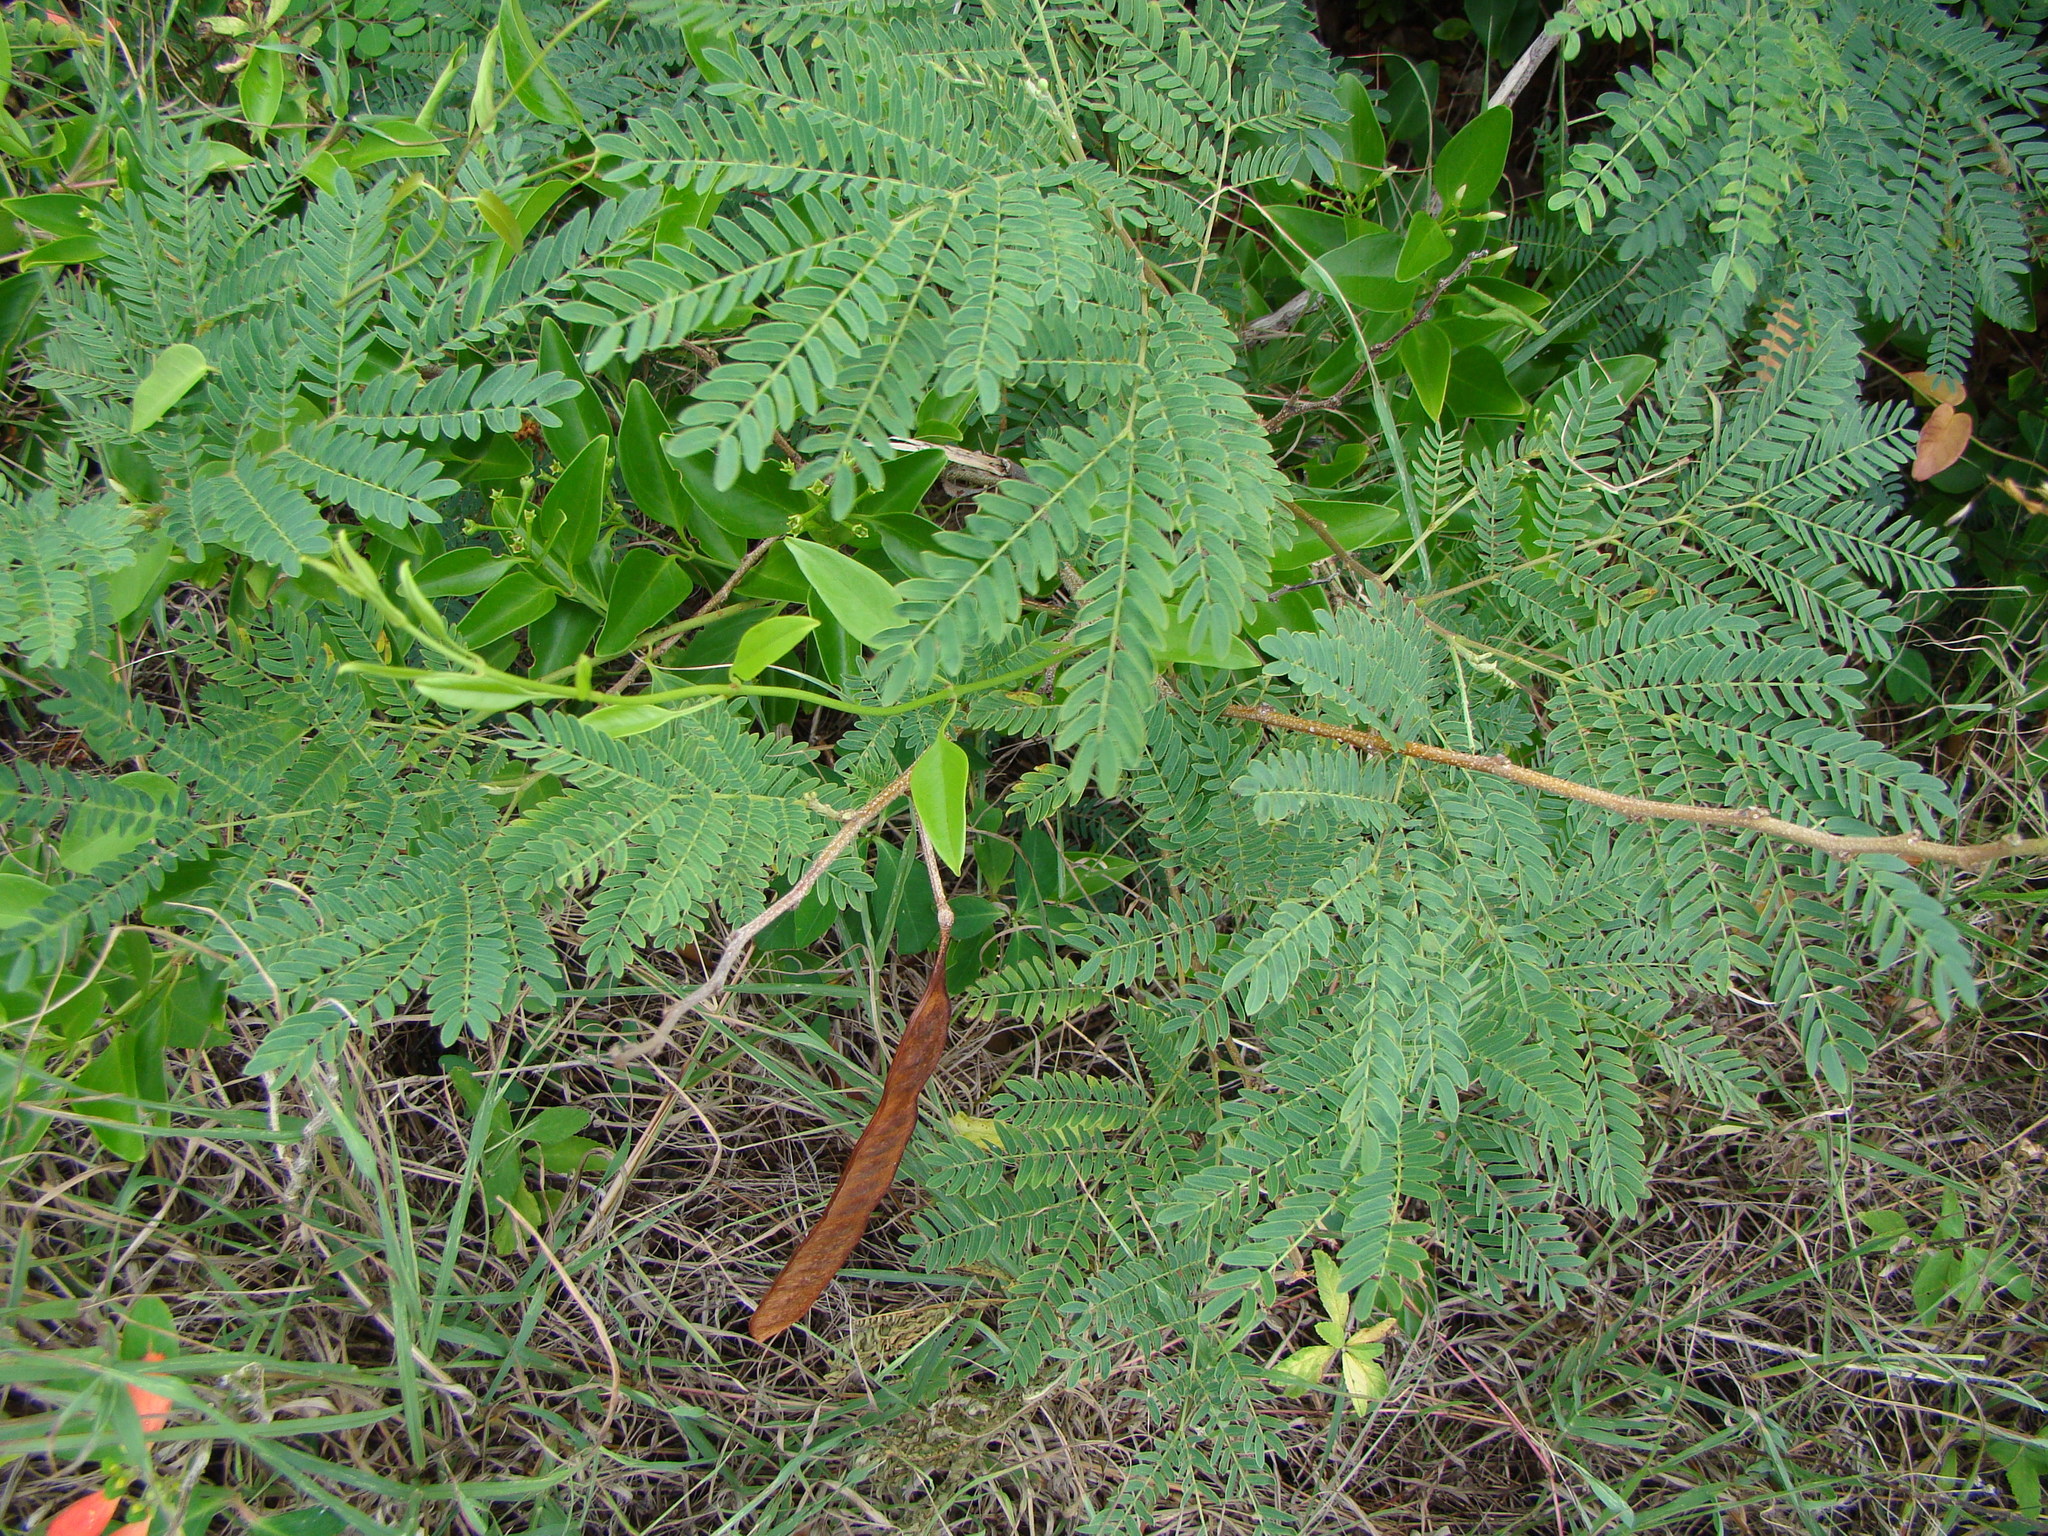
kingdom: Plantae
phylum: Tracheophyta
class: Magnoliopsida
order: Fabales
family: Fabaceae
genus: Leucaena
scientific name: Leucaena leucocephala
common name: White leadtree
